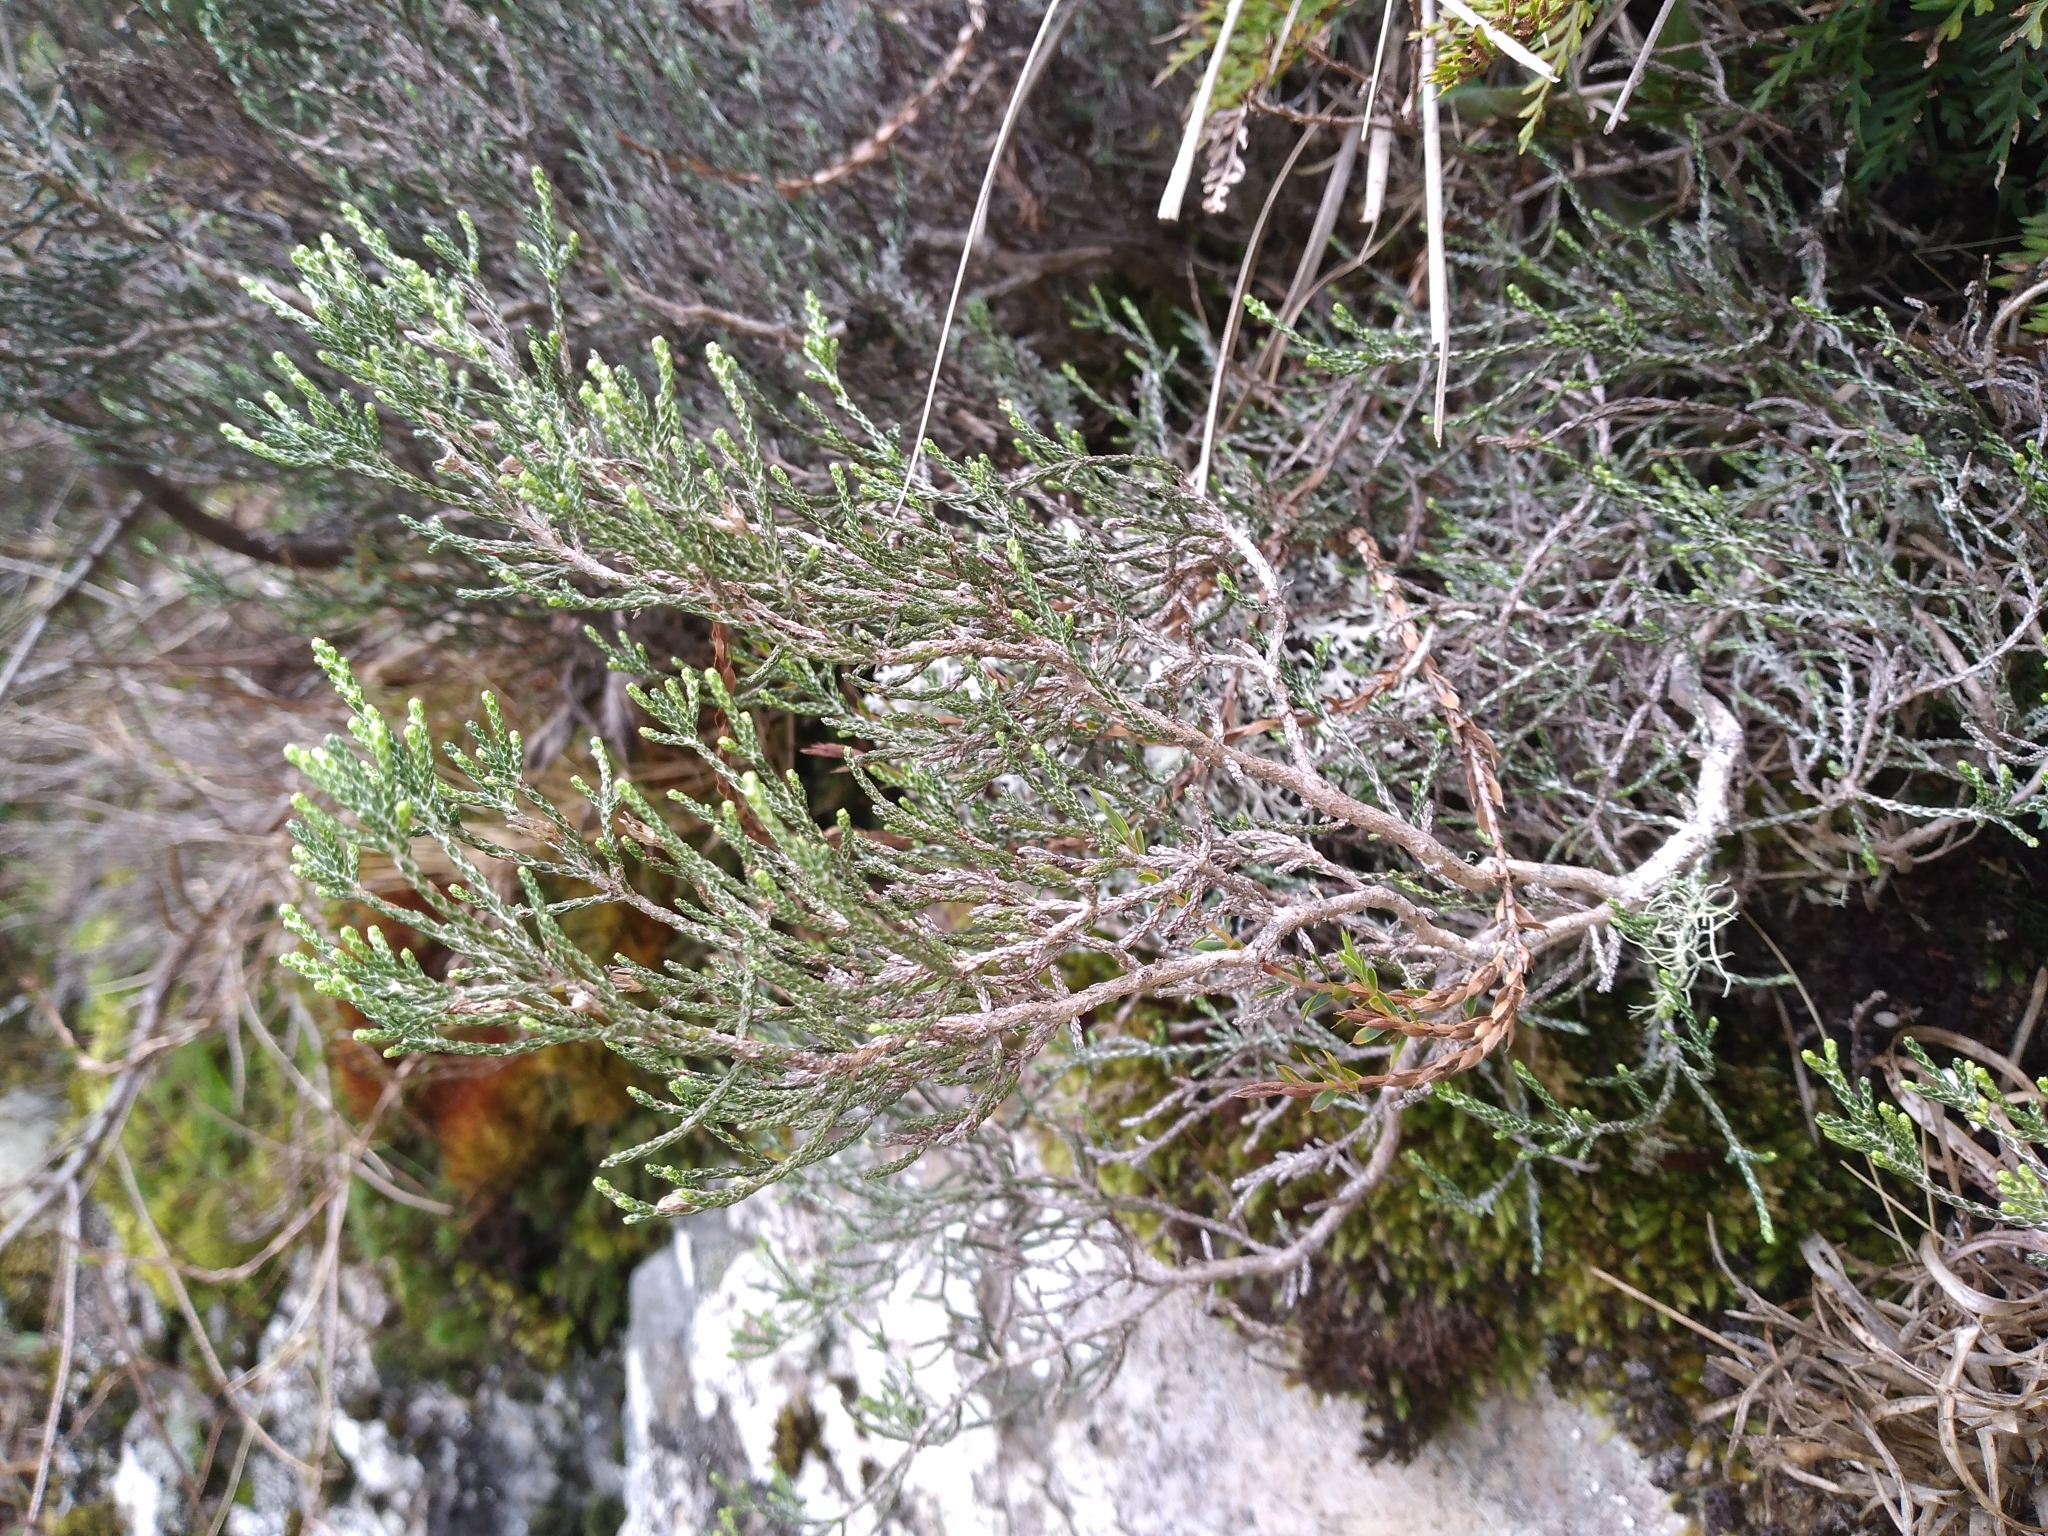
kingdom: Plantae
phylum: Tracheophyta
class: Magnoliopsida
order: Asterales
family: Asteraceae
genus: Ozothamnus
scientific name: Ozothamnus parvifolius
